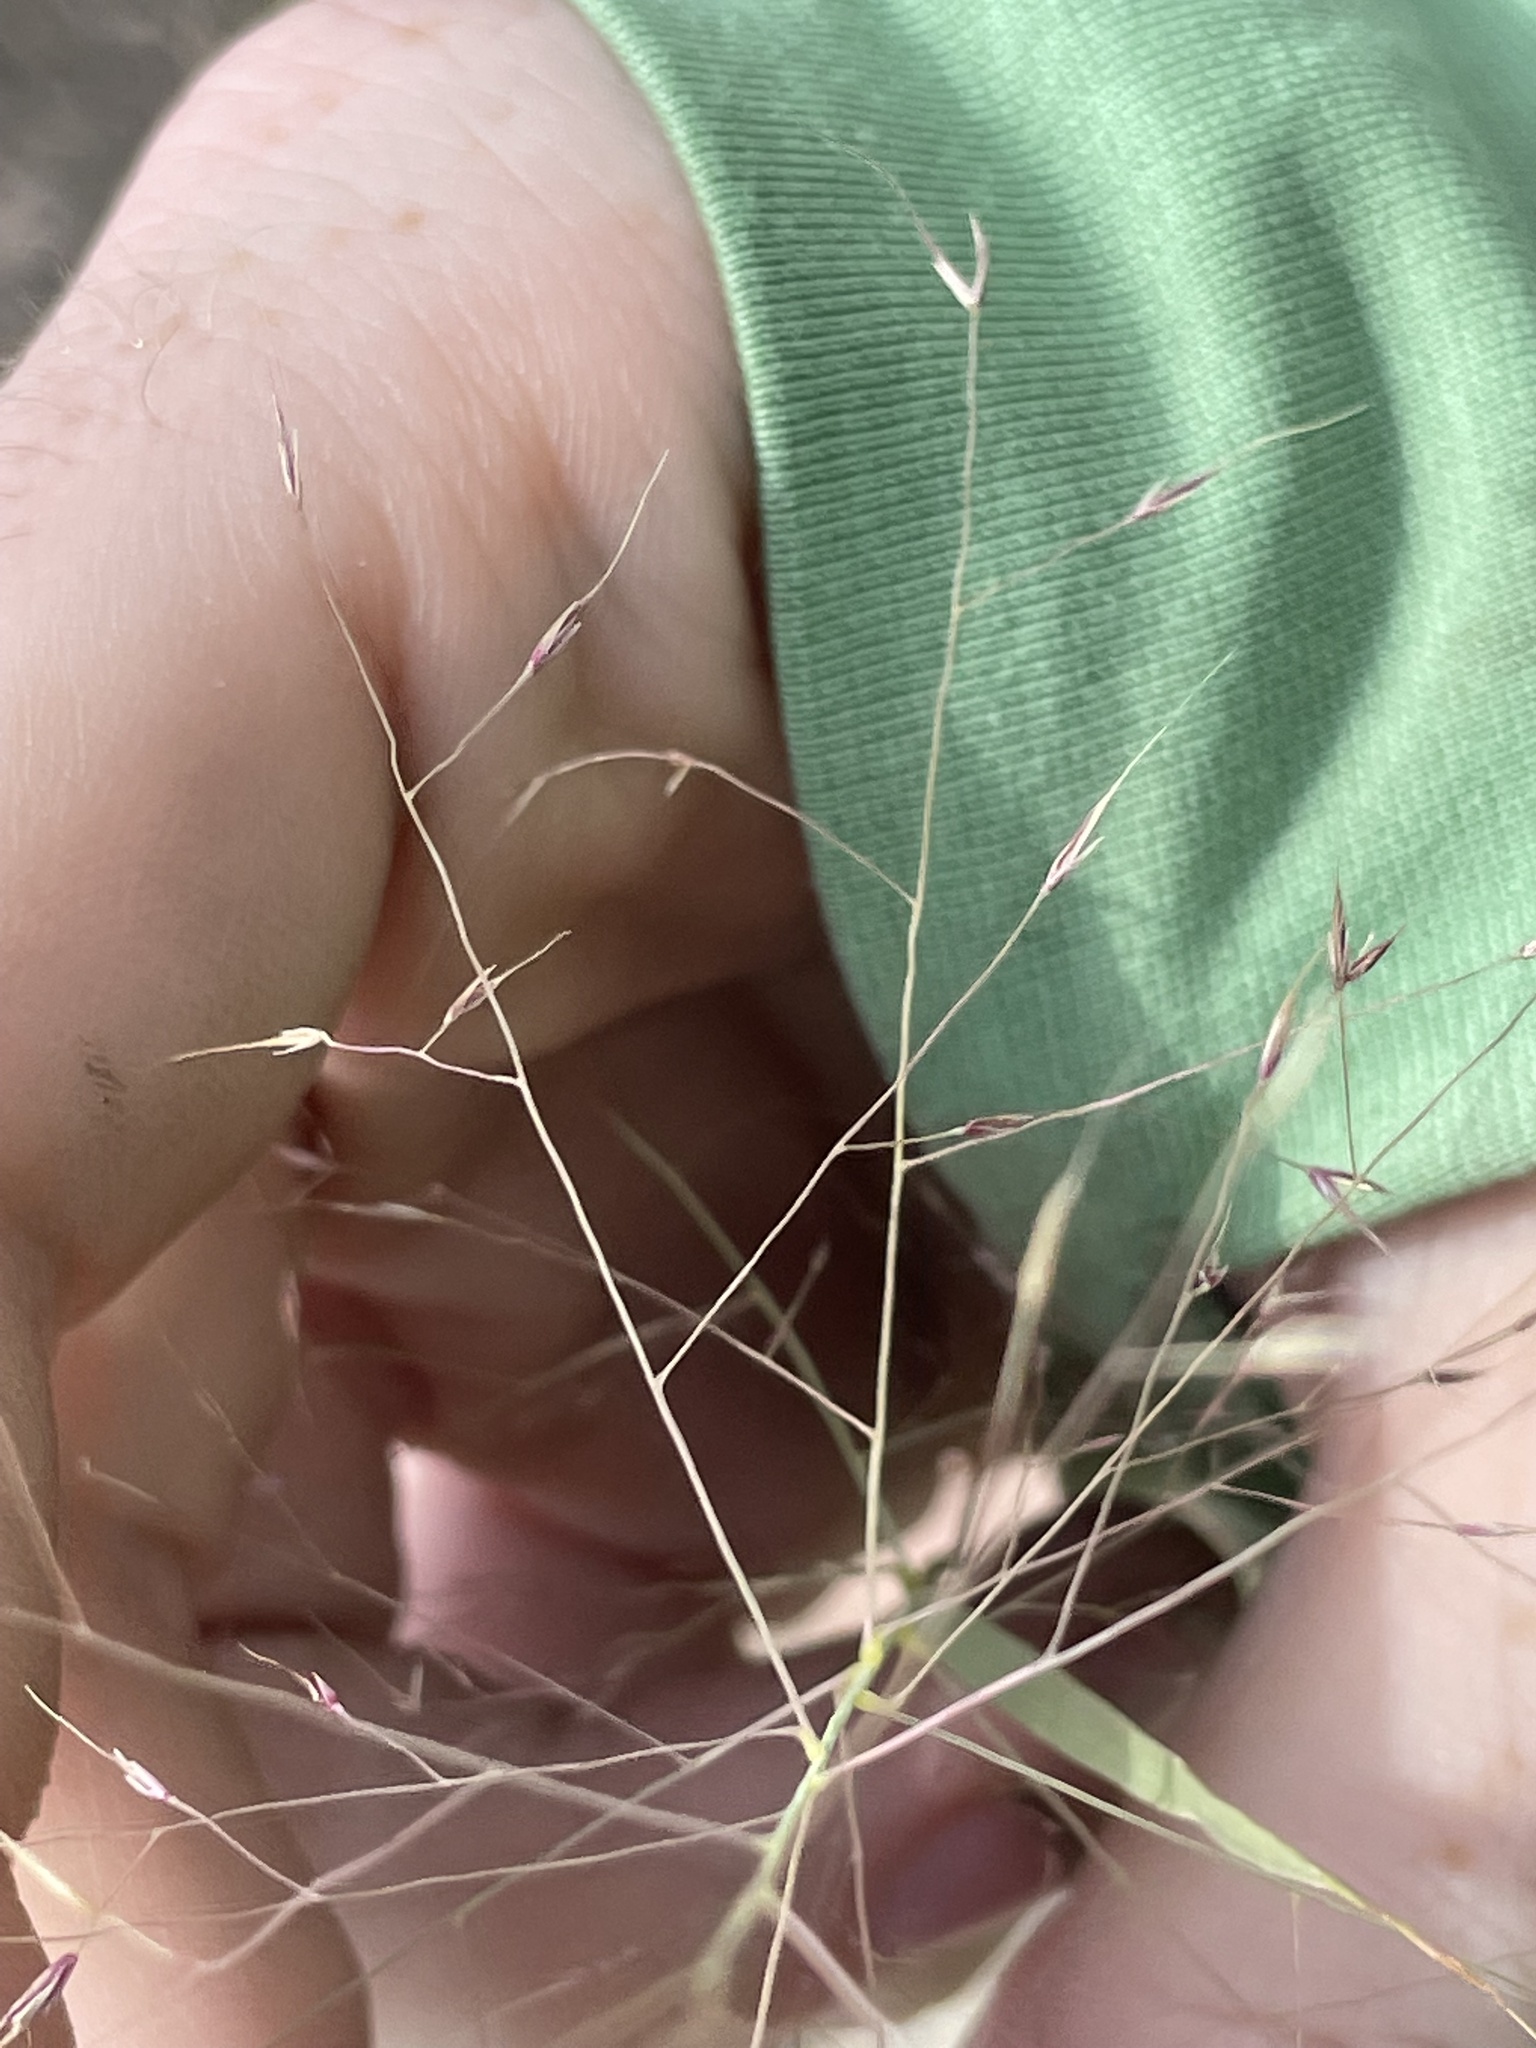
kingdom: Plantae
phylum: Tracheophyta
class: Liliopsida
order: Poales
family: Poaceae
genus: Muhlenbergia
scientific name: Muhlenbergia porteri
